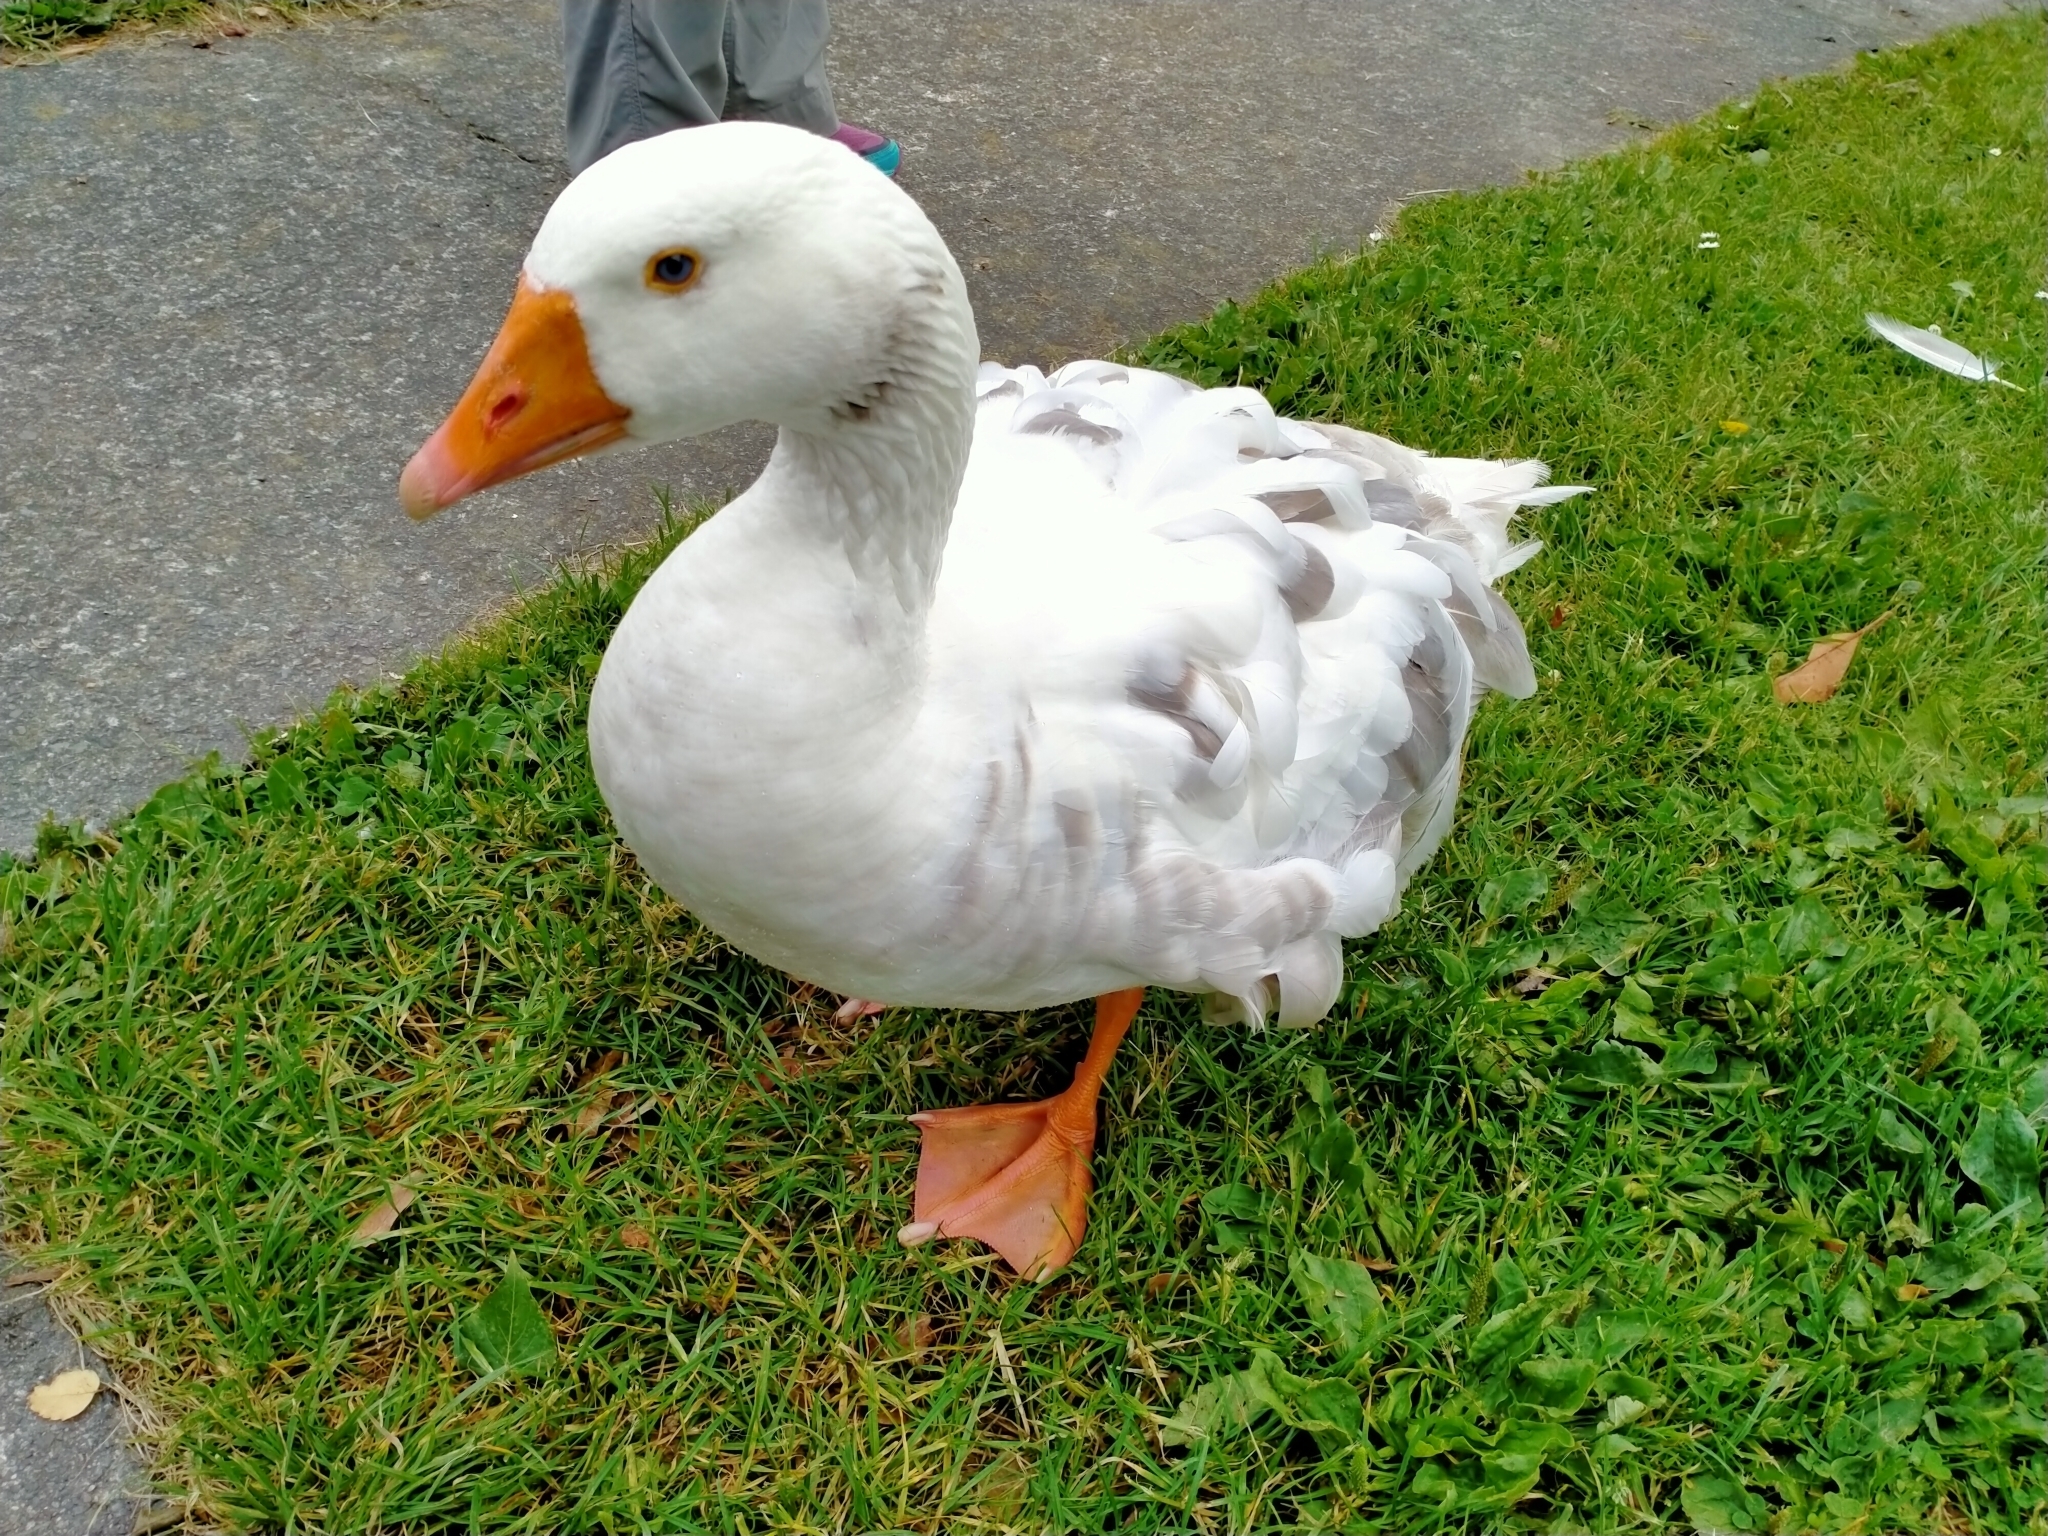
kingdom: Animalia
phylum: Chordata
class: Aves
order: Anseriformes
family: Anatidae
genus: Anser
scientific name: Anser anser
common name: Greylag goose
